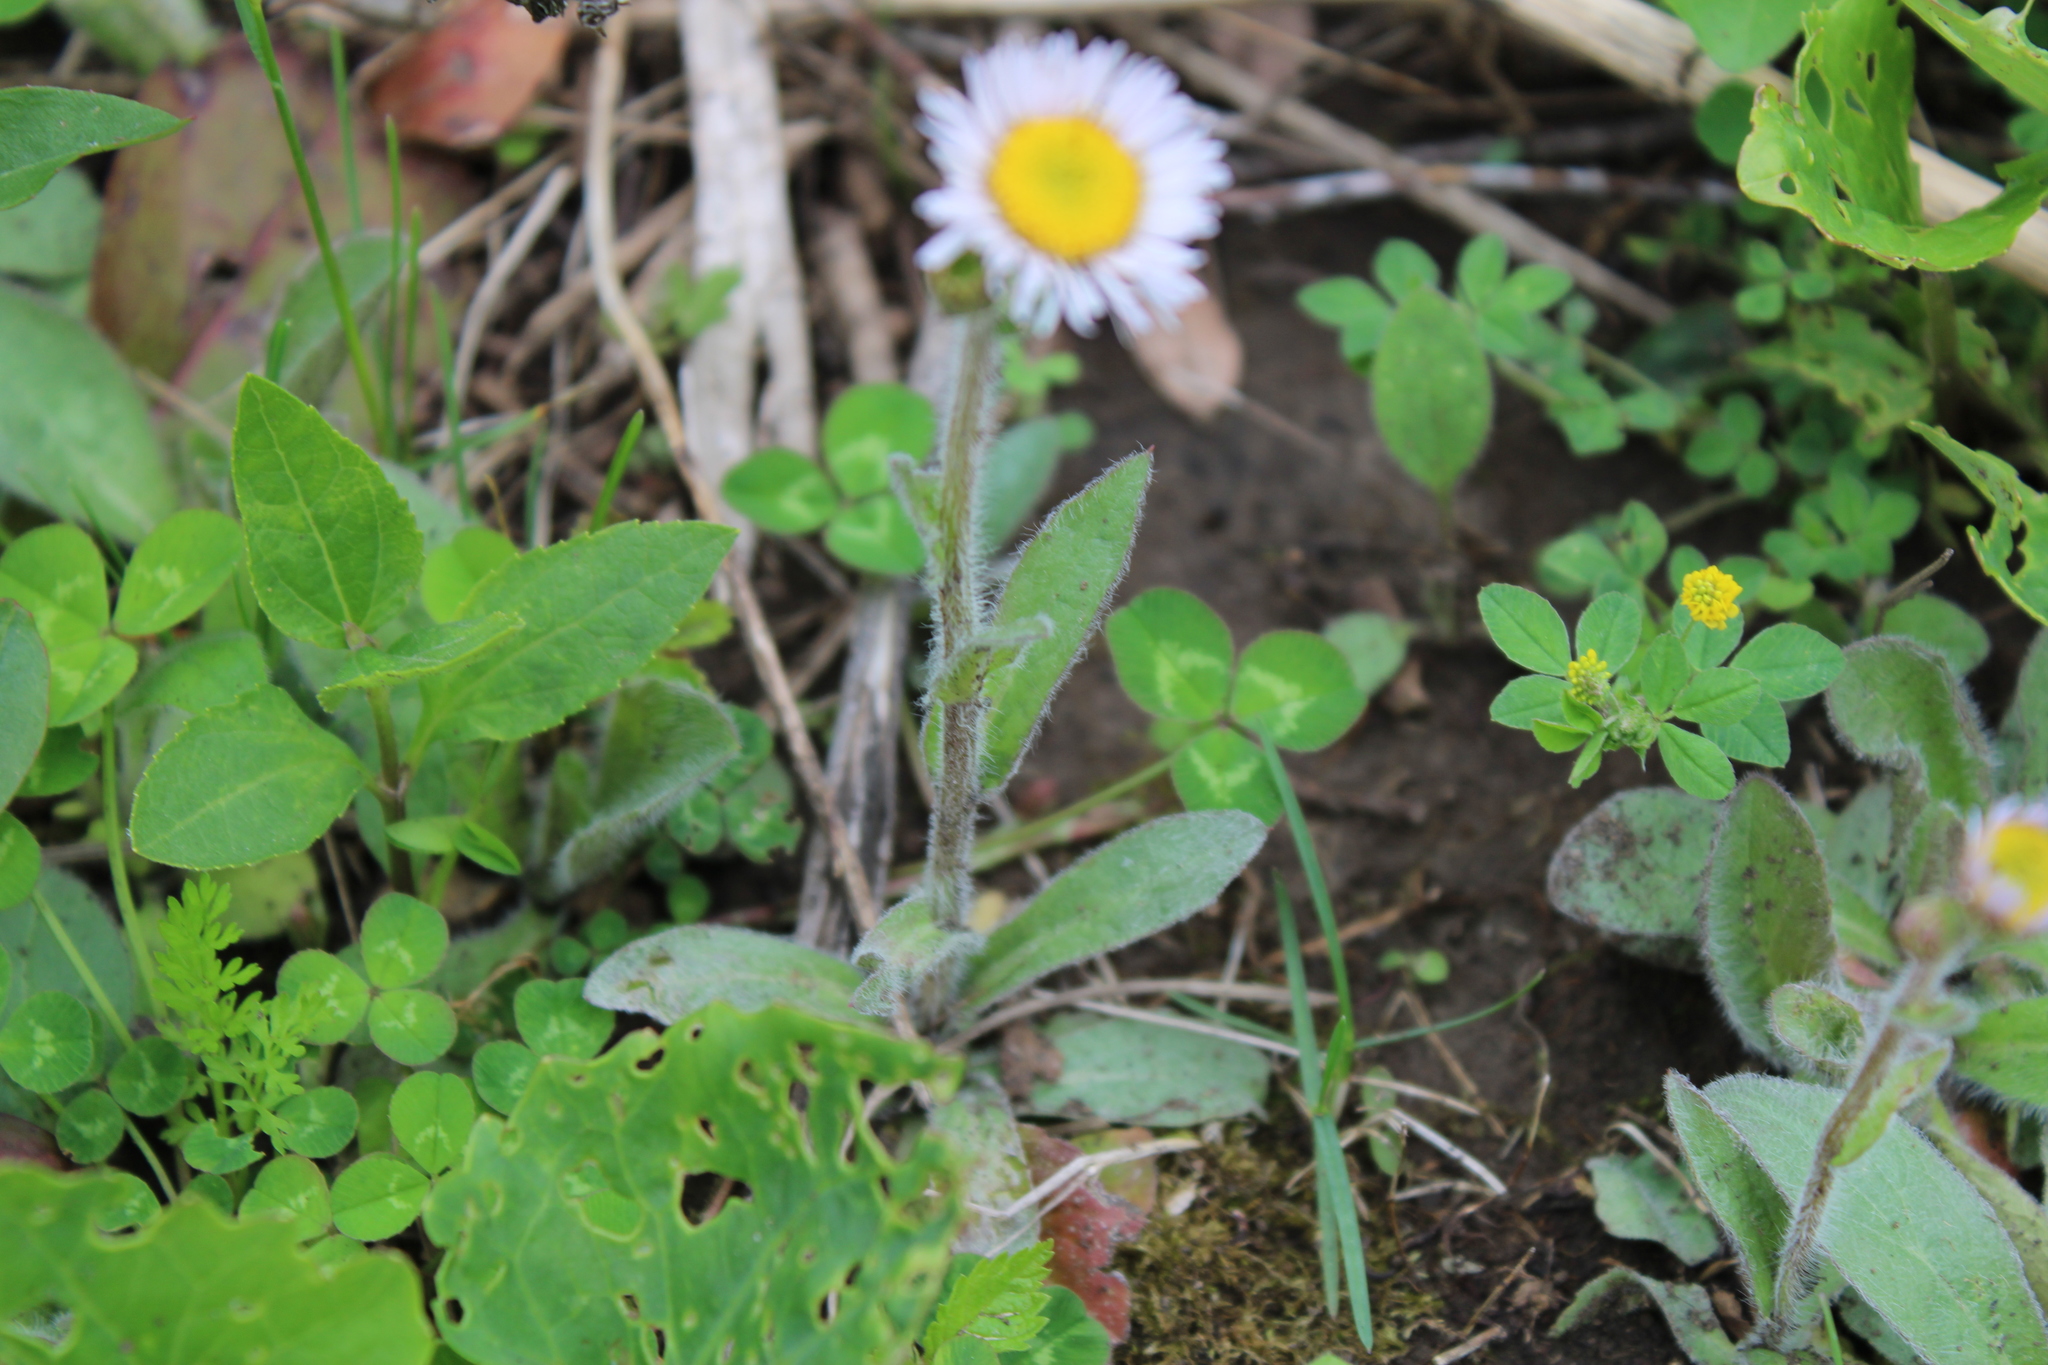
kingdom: Plantae
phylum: Tracheophyta
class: Magnoliopsida
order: Asterales
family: Asteraceae
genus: Erigeron
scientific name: Erigeron pulchellus
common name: Hairy fleabane
